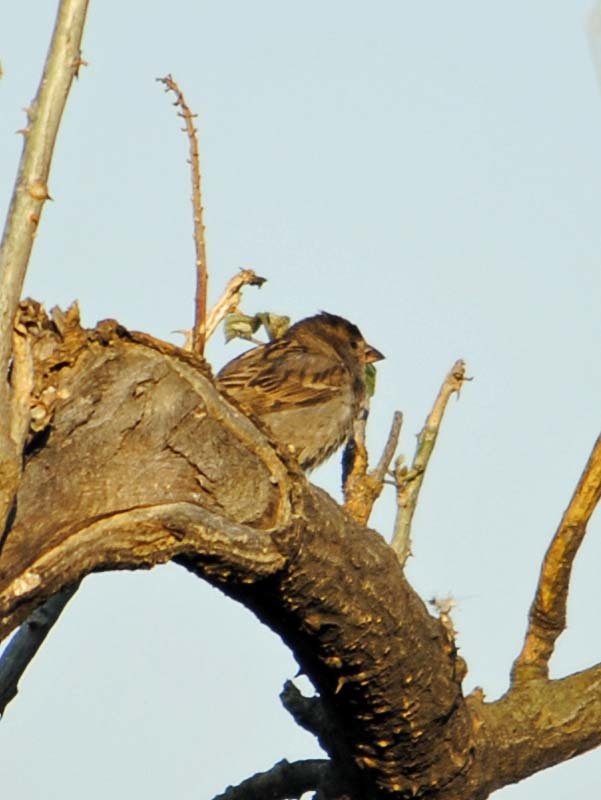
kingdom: Animalia
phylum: Chordata
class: Aves
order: Passeriformes
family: Passeridae
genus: Passer
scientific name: Passer domesticus
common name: House sparrow
